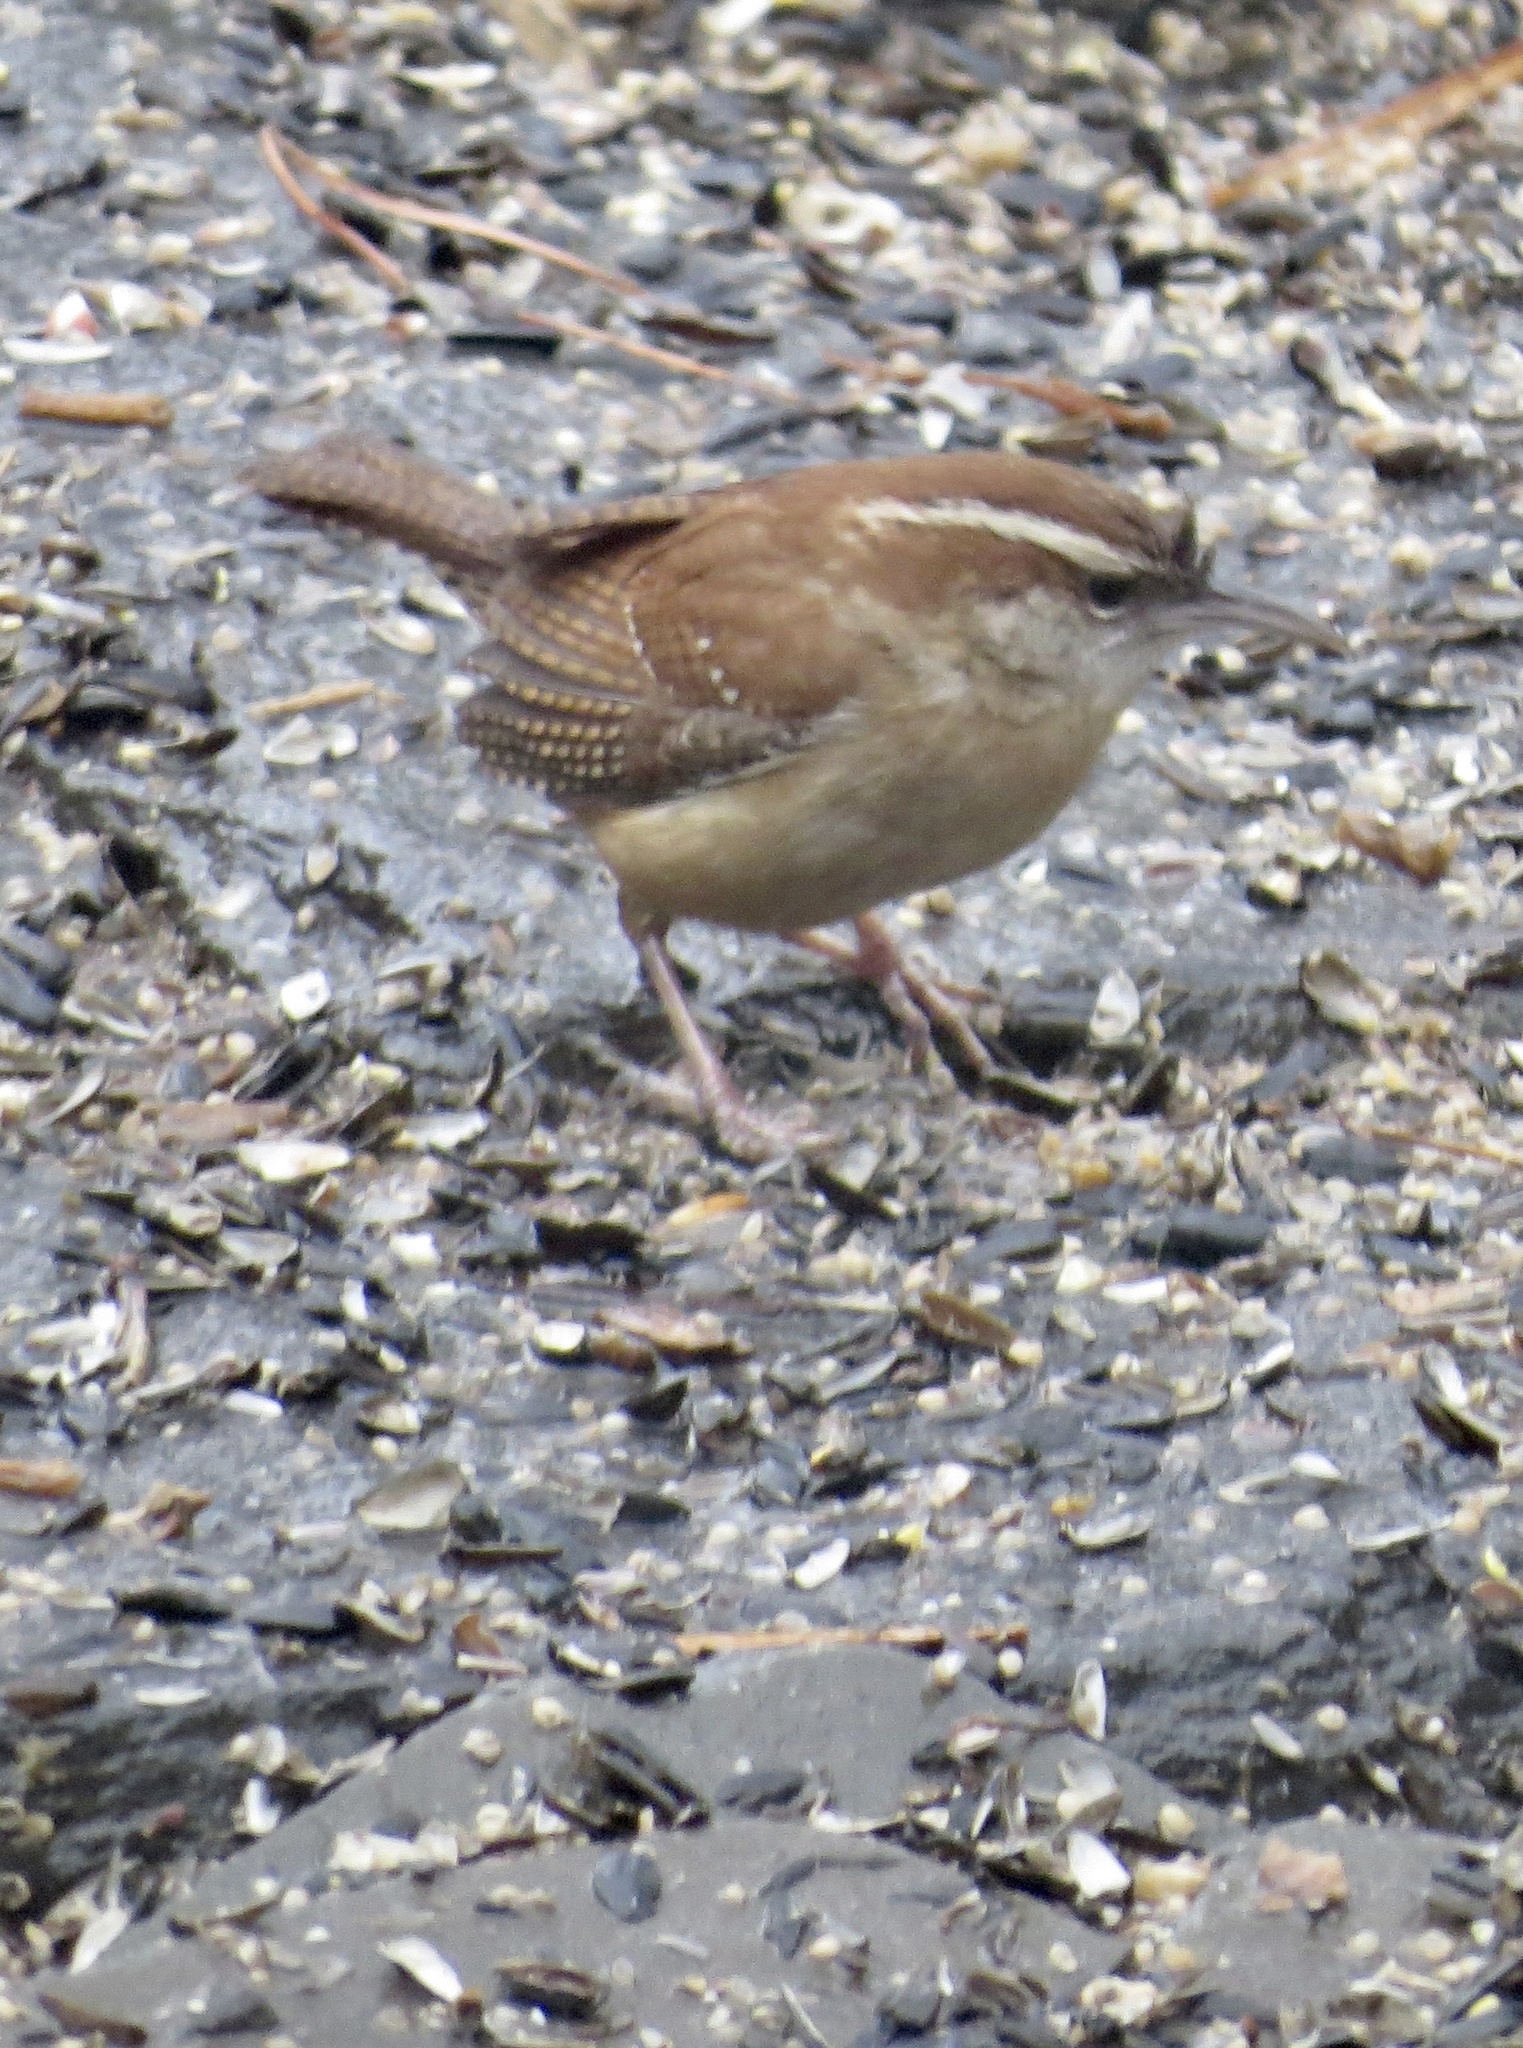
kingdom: Animalia
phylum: Chordata
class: Aves
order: Passeriformes
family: Troglodytidae
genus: Thryothorus
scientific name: Thryothorus ludovicianus
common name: Carolina wren
